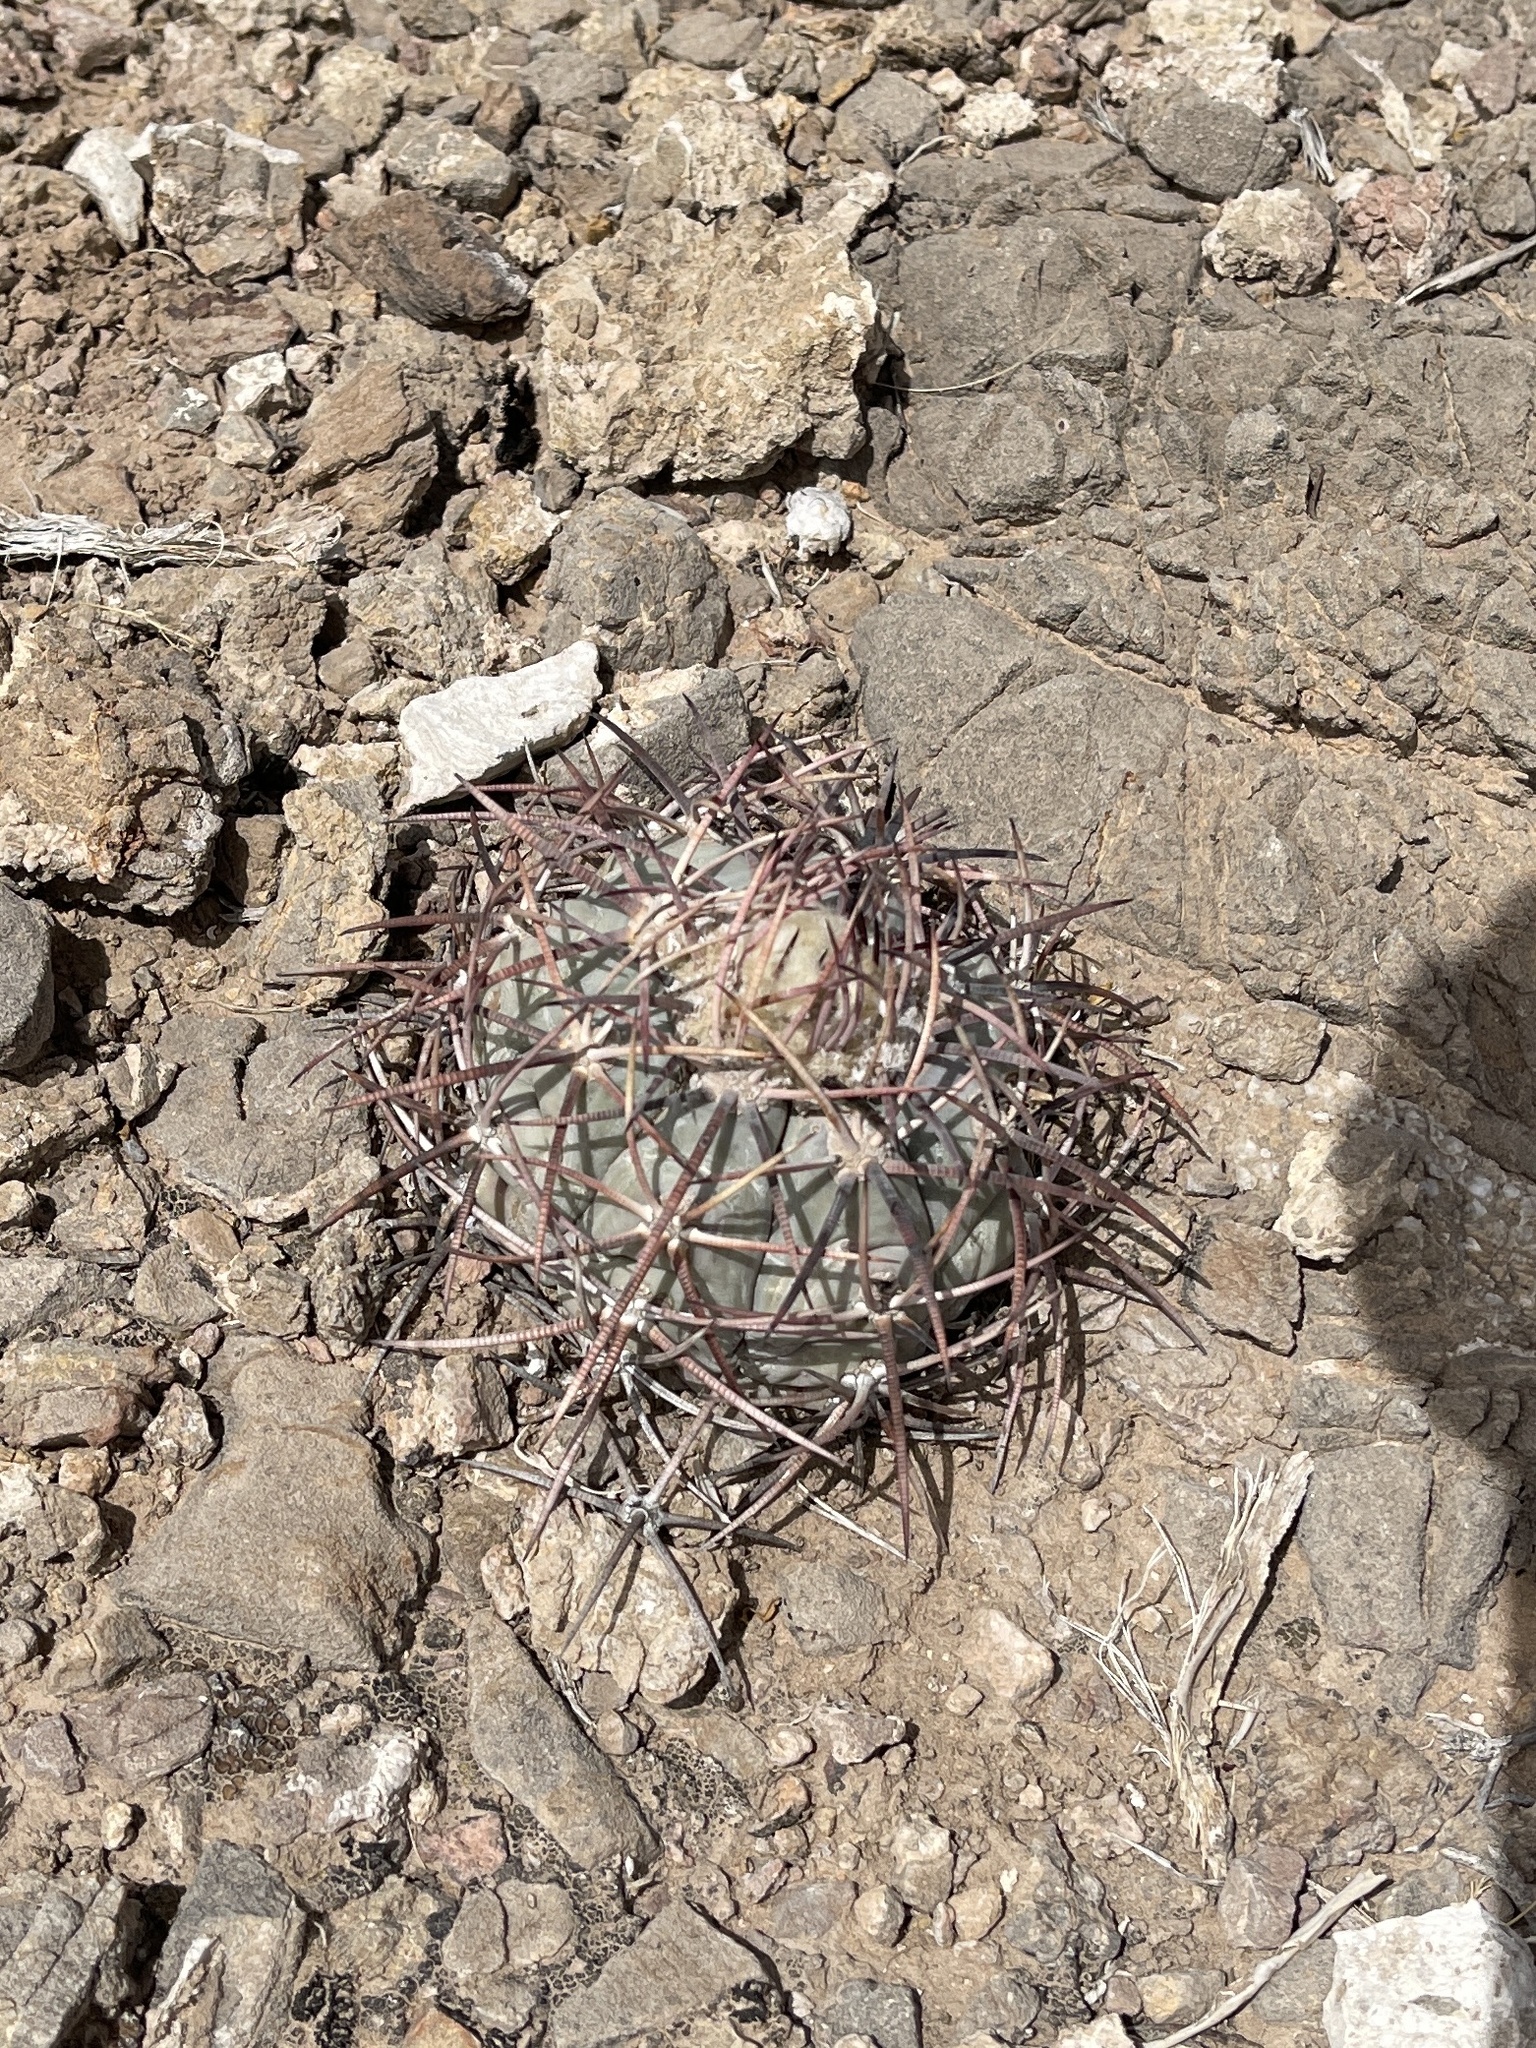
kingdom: Plantae
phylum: Tracheophyta
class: Magnoliopsida
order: Caryophyllales
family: Cactaceae
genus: Echinocactus
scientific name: Echinocactus horizonthalonius
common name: Devilshead
